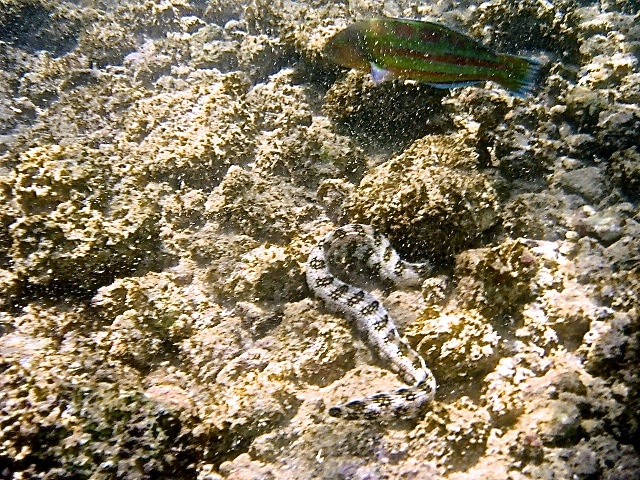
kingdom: Animalia
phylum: Chordata
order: Anguilliformes
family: Muraenidae
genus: Echidna
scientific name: Echidna nebulosa
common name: Snowflake moray
